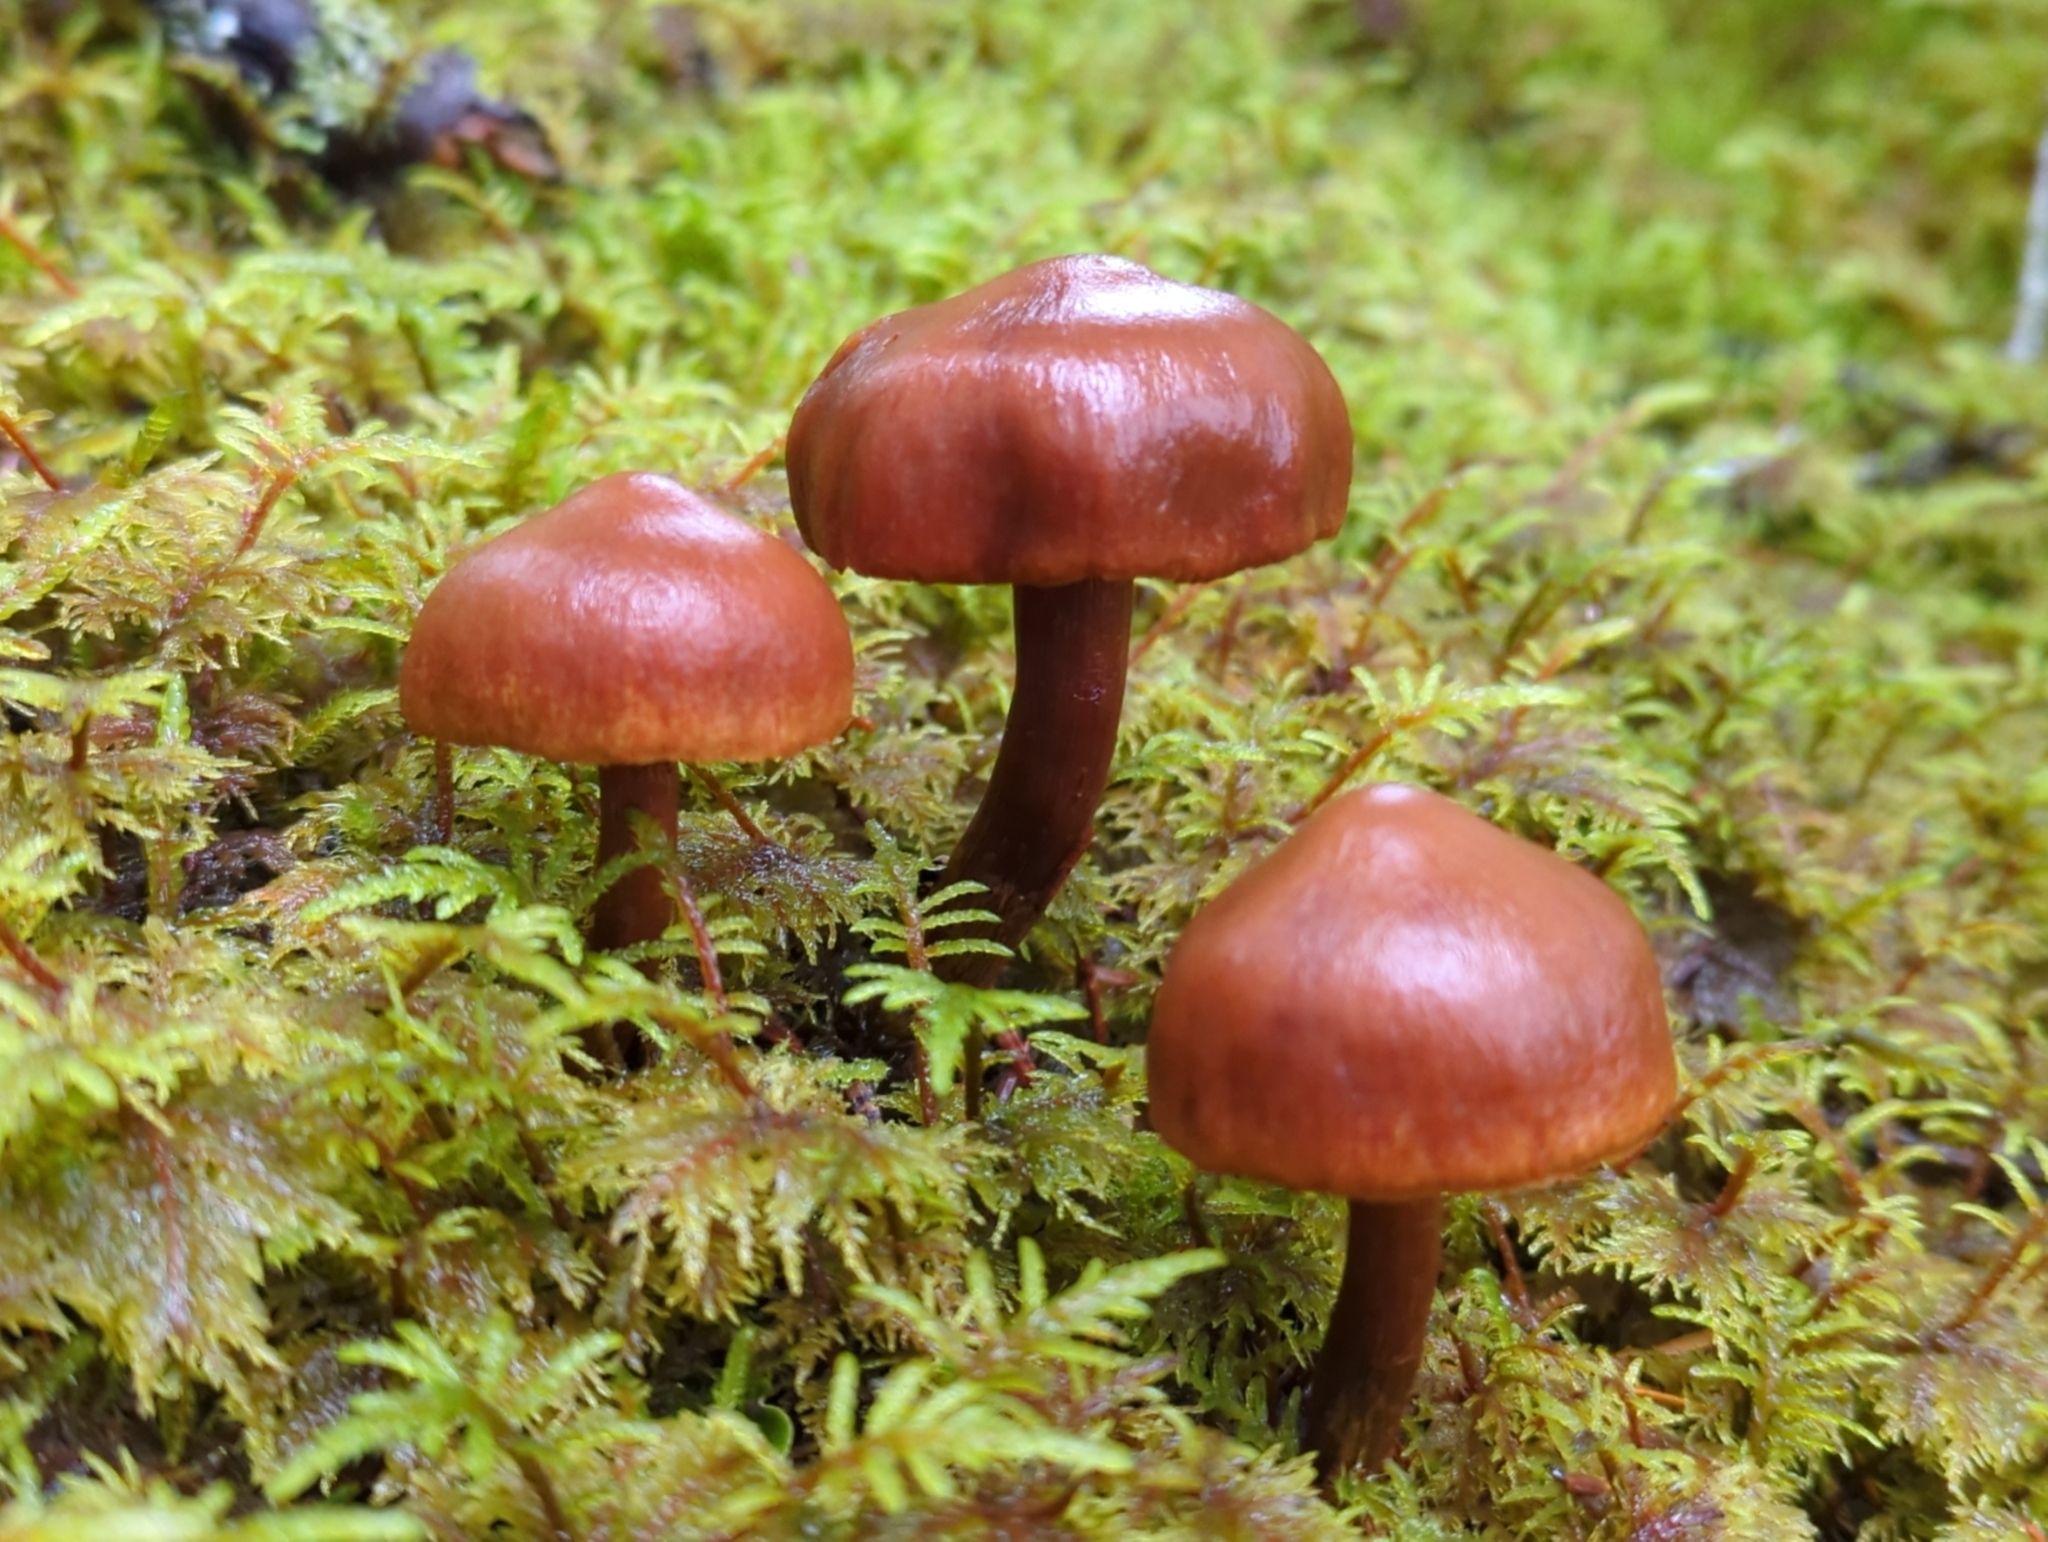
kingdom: Fungi
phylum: Basidiomycota
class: Agaricomycetes
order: Agaricales
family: Cortinariaceae
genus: Cortinarius
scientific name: Cortinarius gentilis
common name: Conifer webcap
